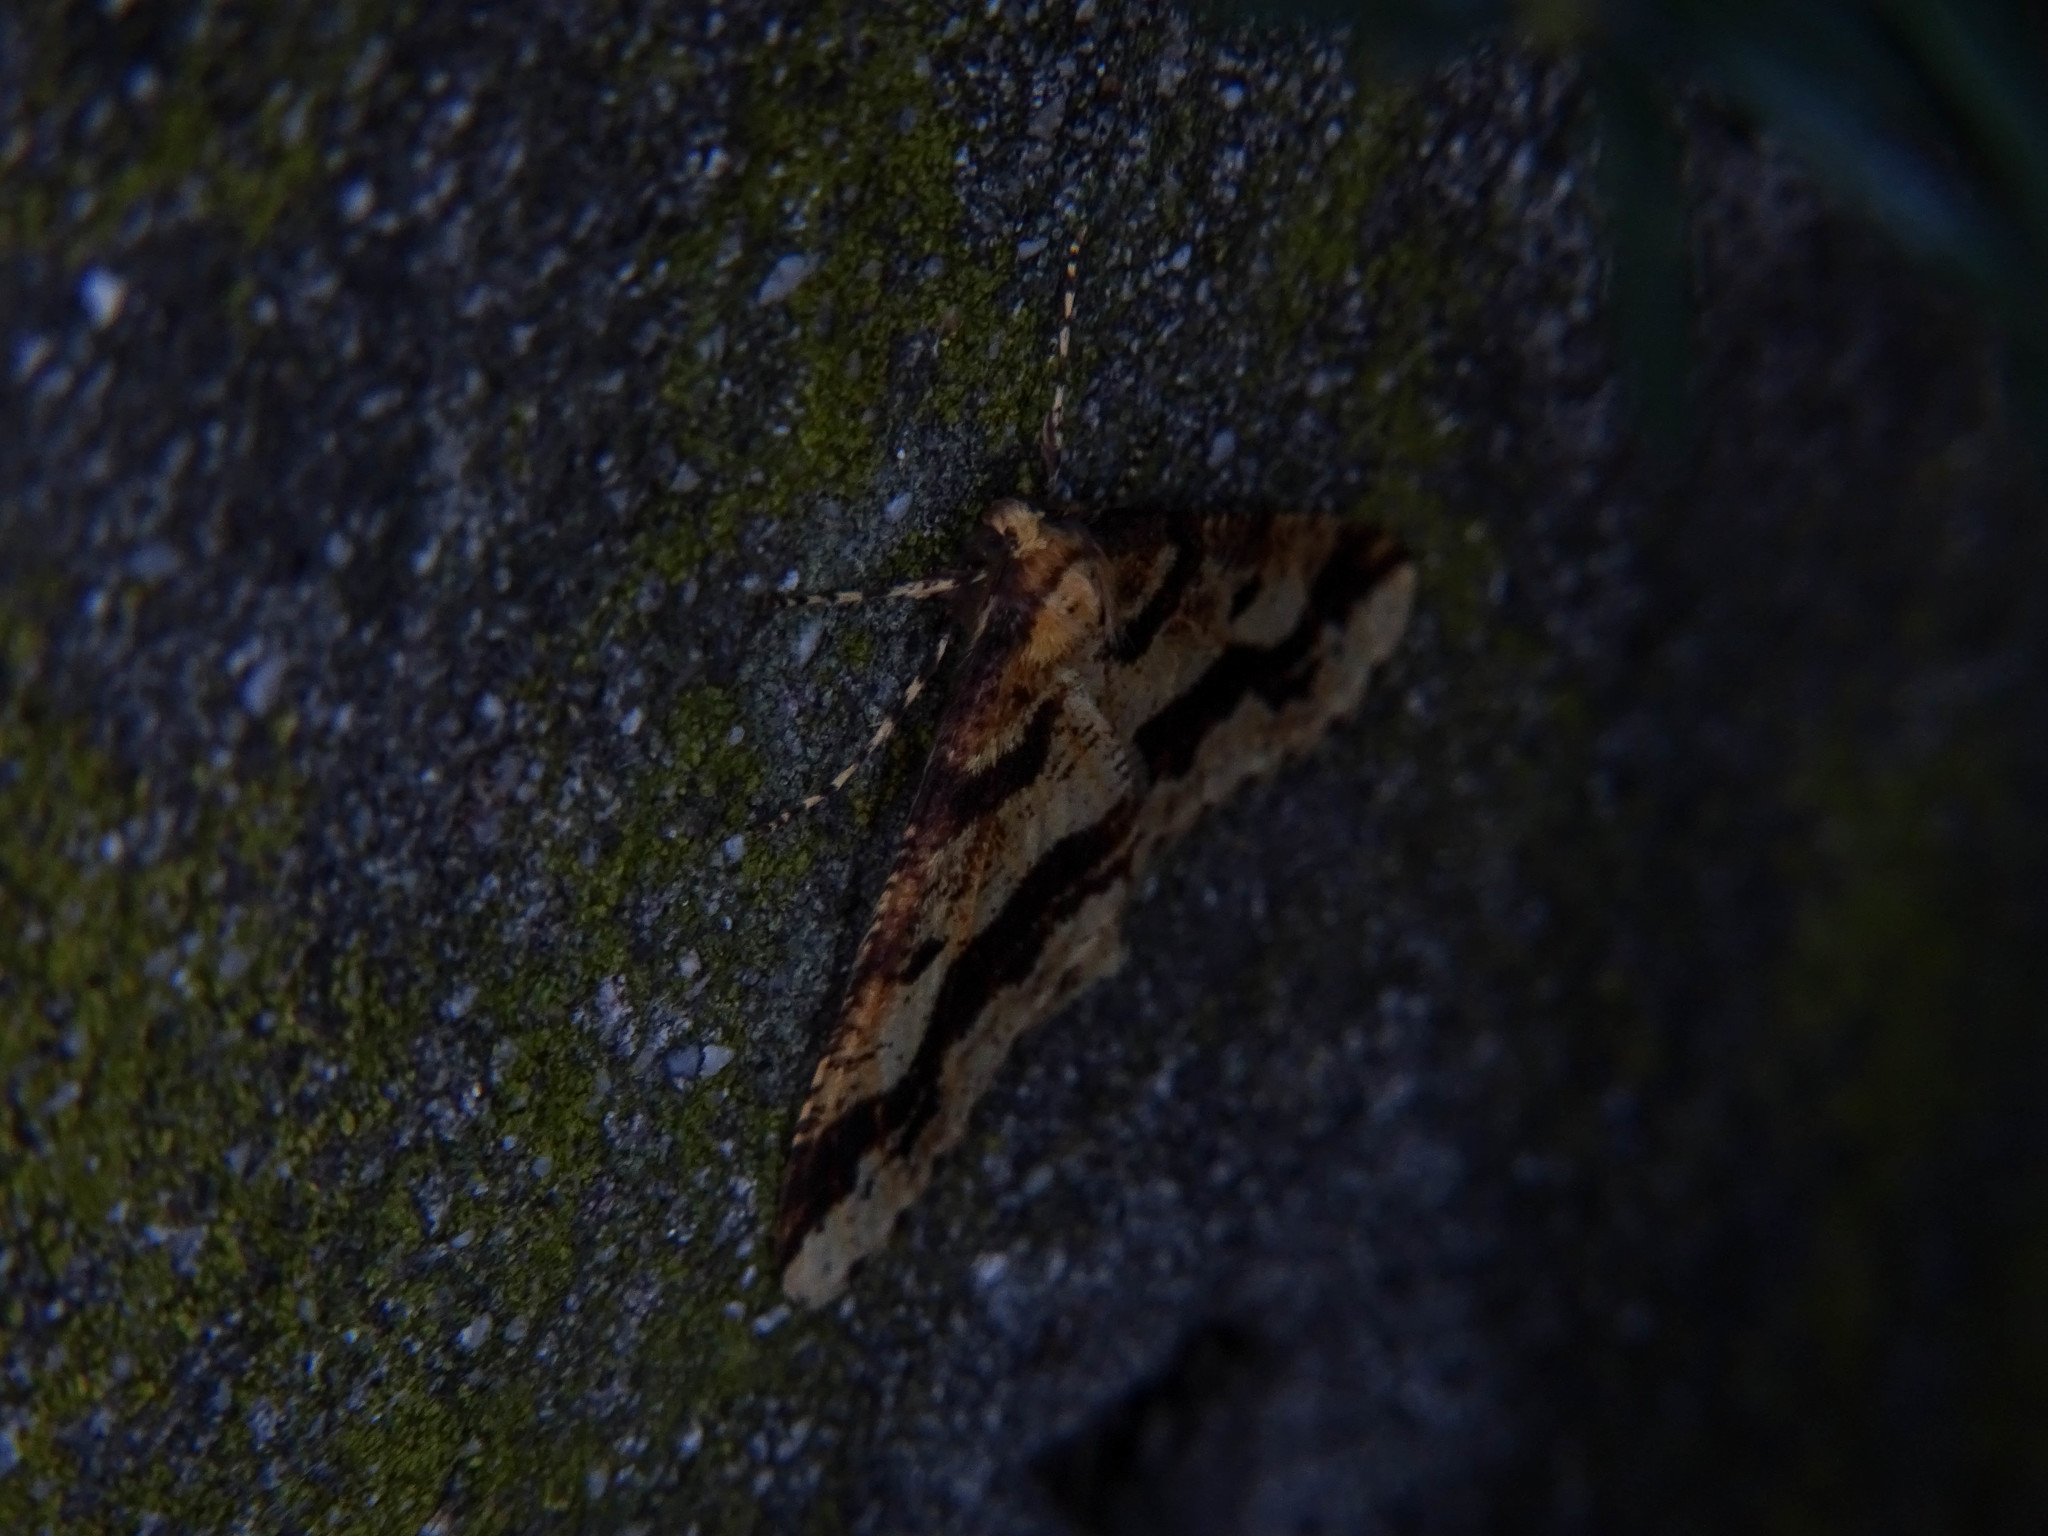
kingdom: Animalia
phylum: Arthropoda
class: Insecta
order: Lepidoptera
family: Geometridae
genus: Erannis
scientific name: Erannis defoliaria
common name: Mottled umber
